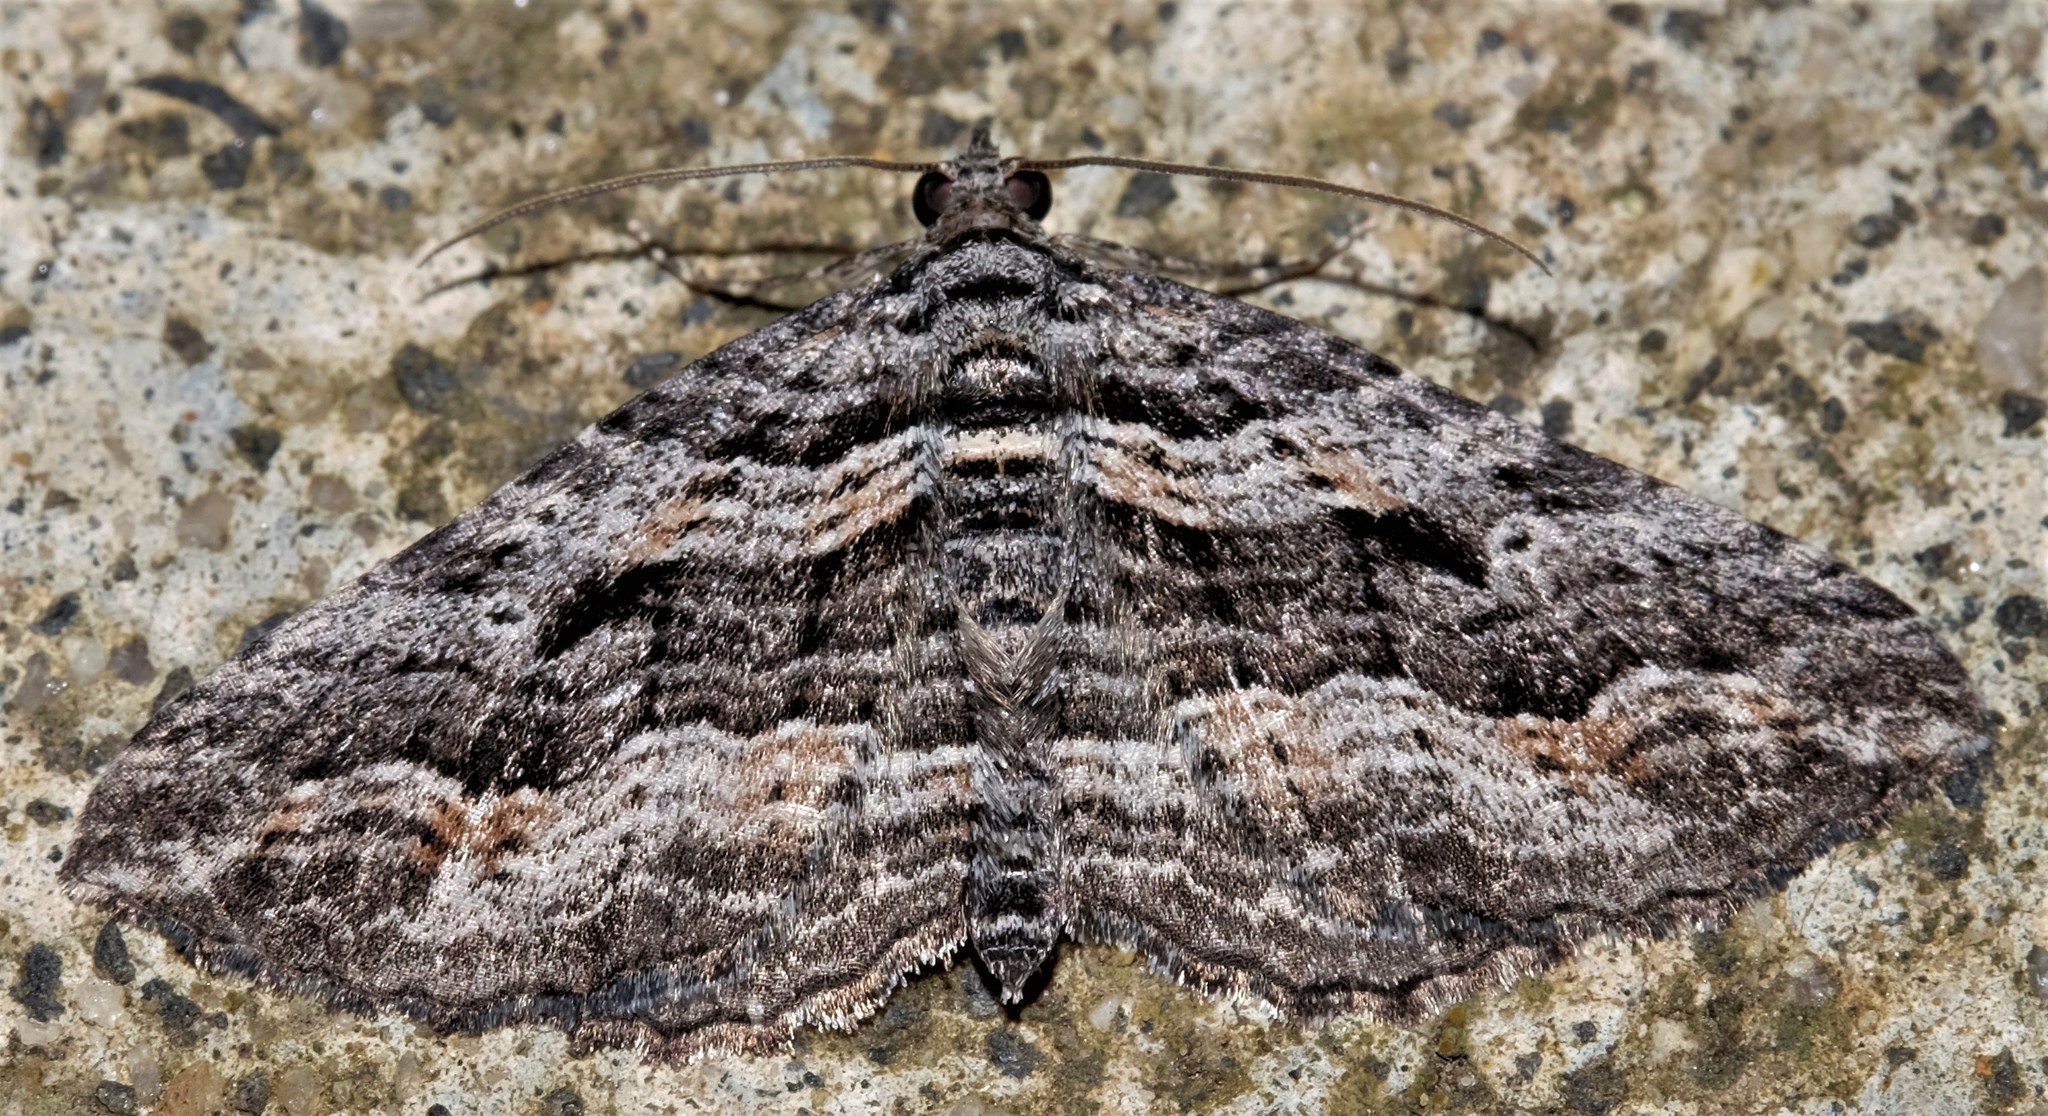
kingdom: Animalia
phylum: Arthropoda
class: Insecta
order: Lepidoptera
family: Geometridae
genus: Chrysolarentia
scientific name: Chrysolarentia severata
